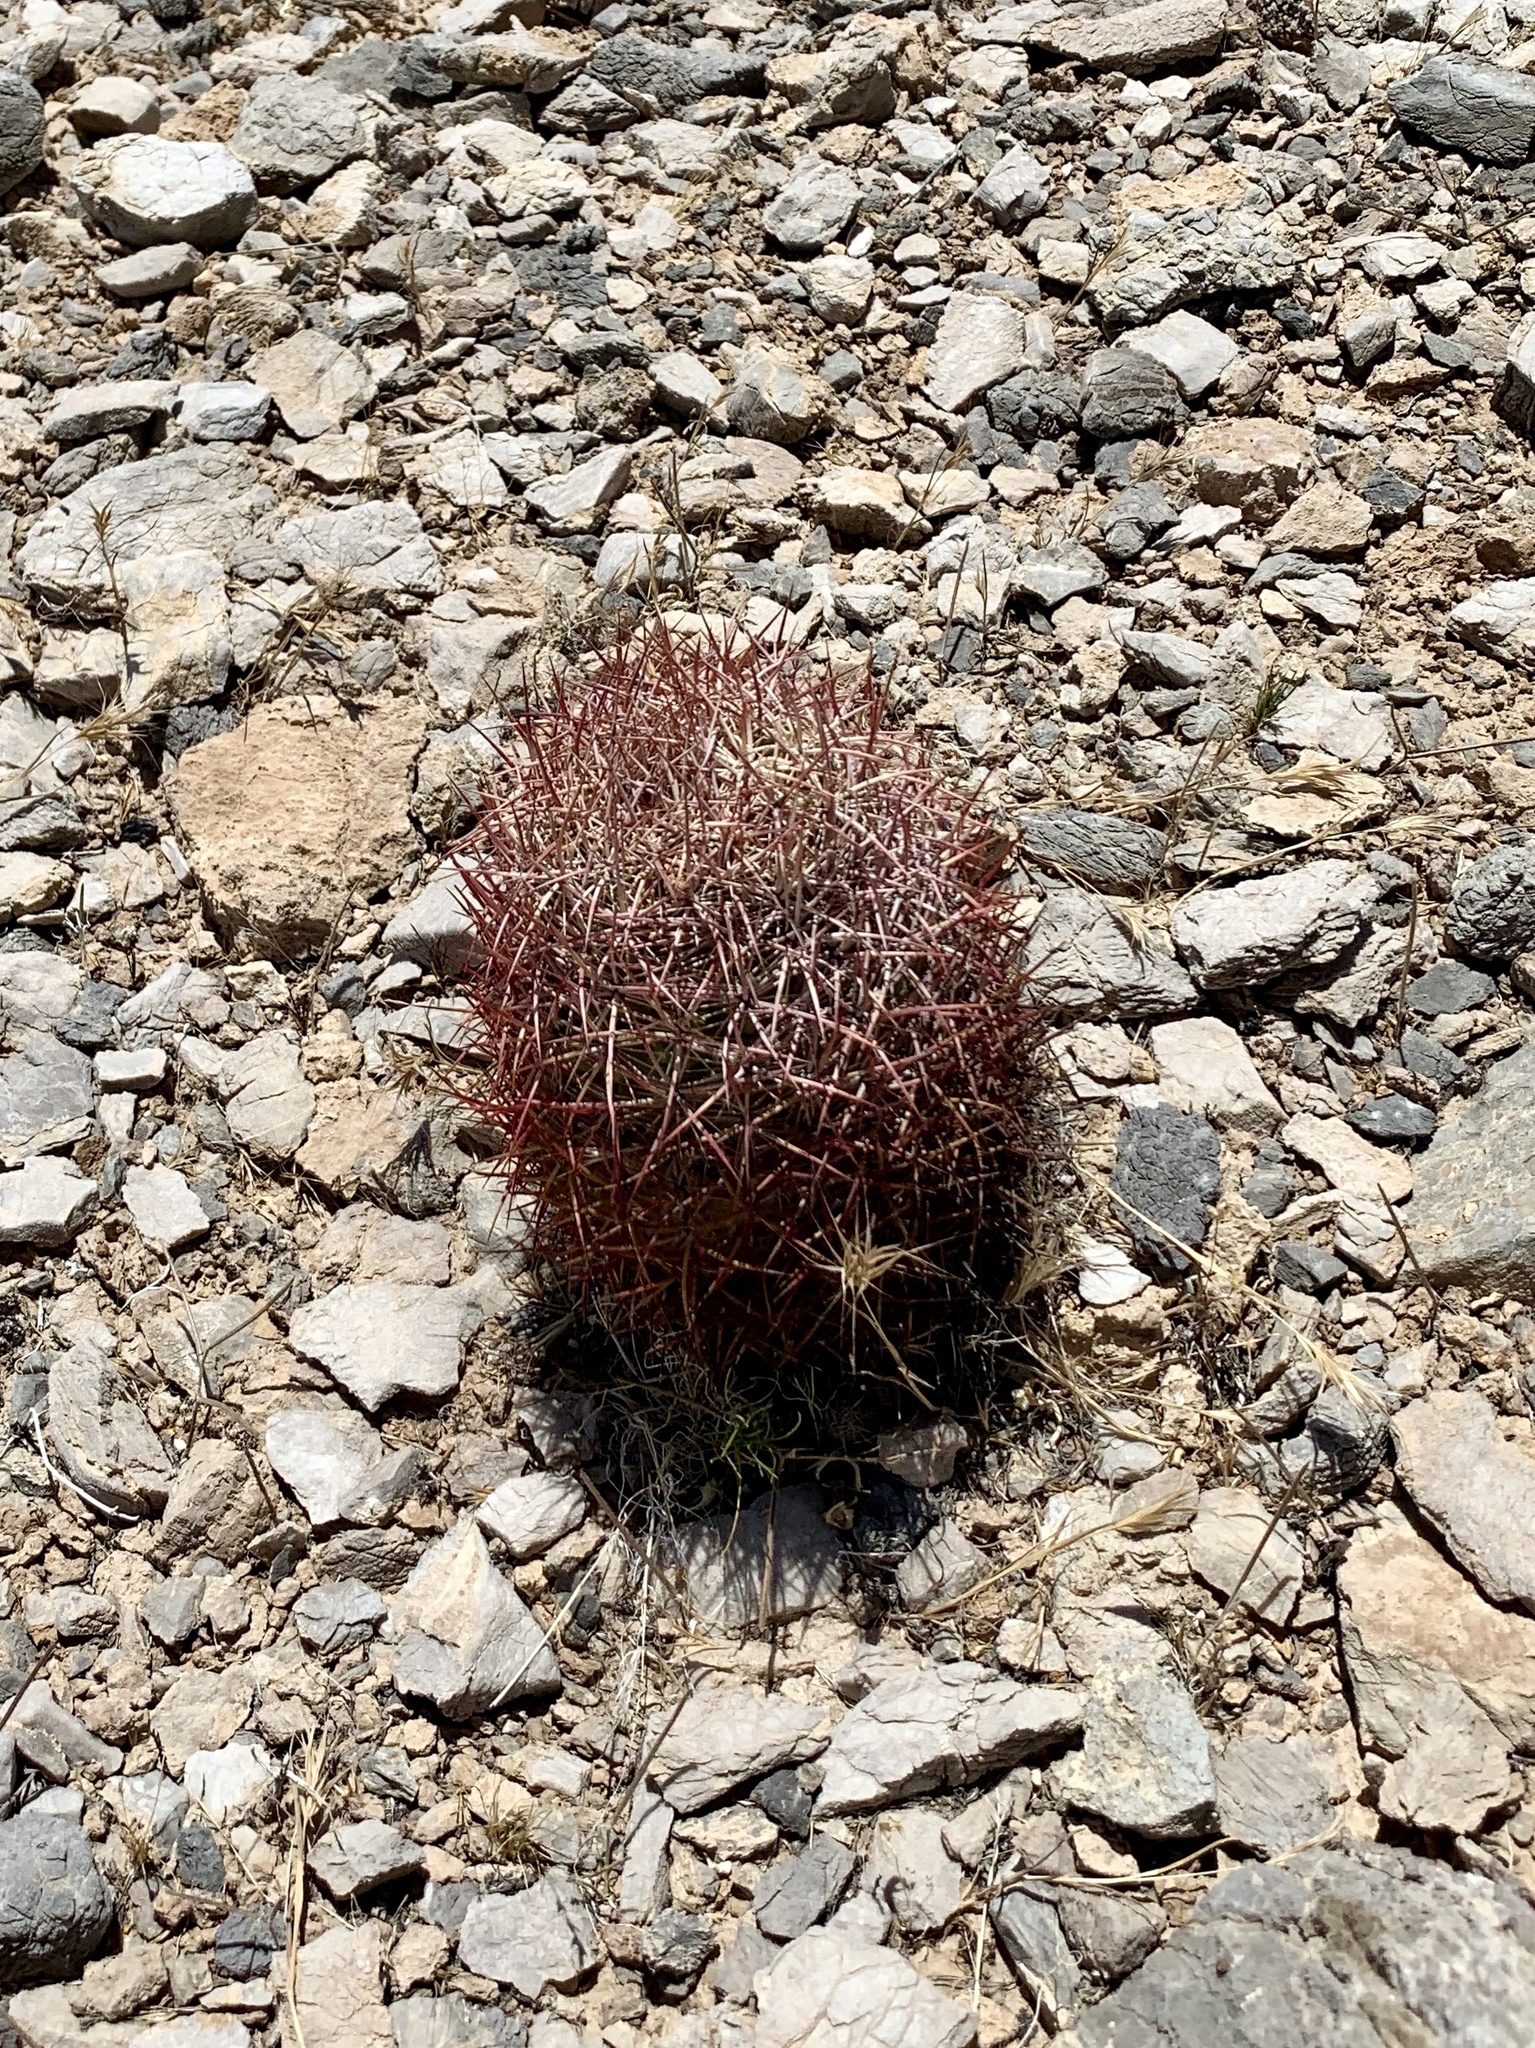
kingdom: Plantae
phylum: Tracheophyta
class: Magnoliopsida
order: Caryophyllales
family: Cactaceae
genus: Sclerocactus
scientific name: Sclerocactus johnsonii
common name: Eight-spine fishhook cactus
